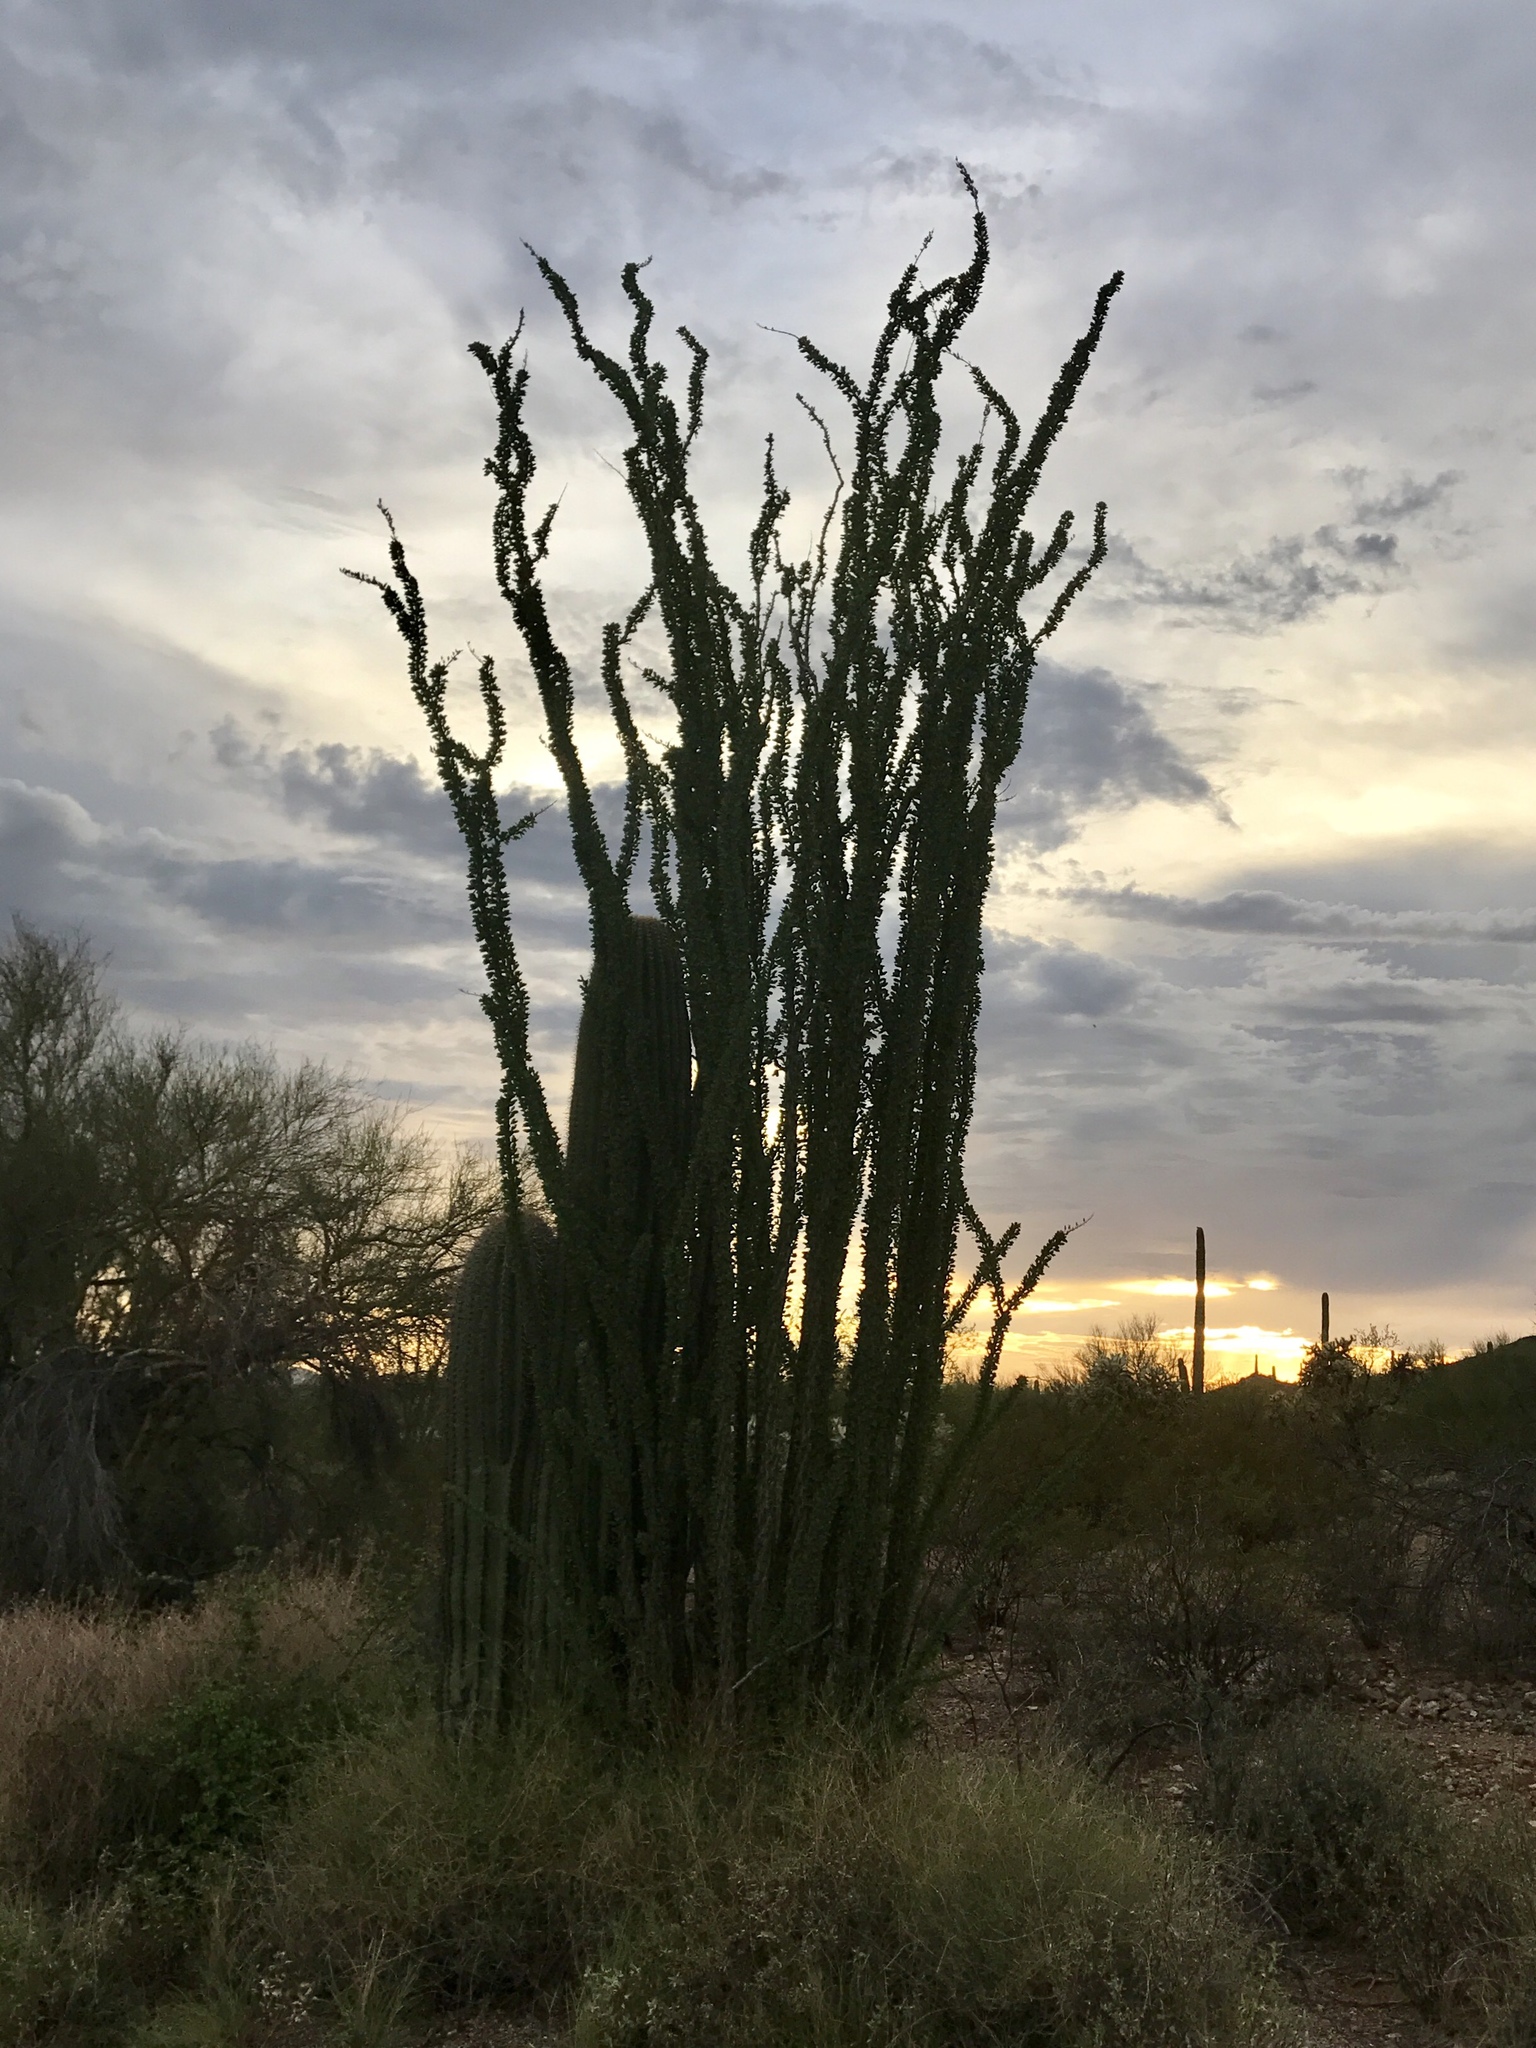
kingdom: Plantae
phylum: Tracheophyta
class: Magnoliopsida
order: Ericales
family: Fouquieriaceae
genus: Fouquieria
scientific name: Fouquieria splendens
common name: Vine-cactus
